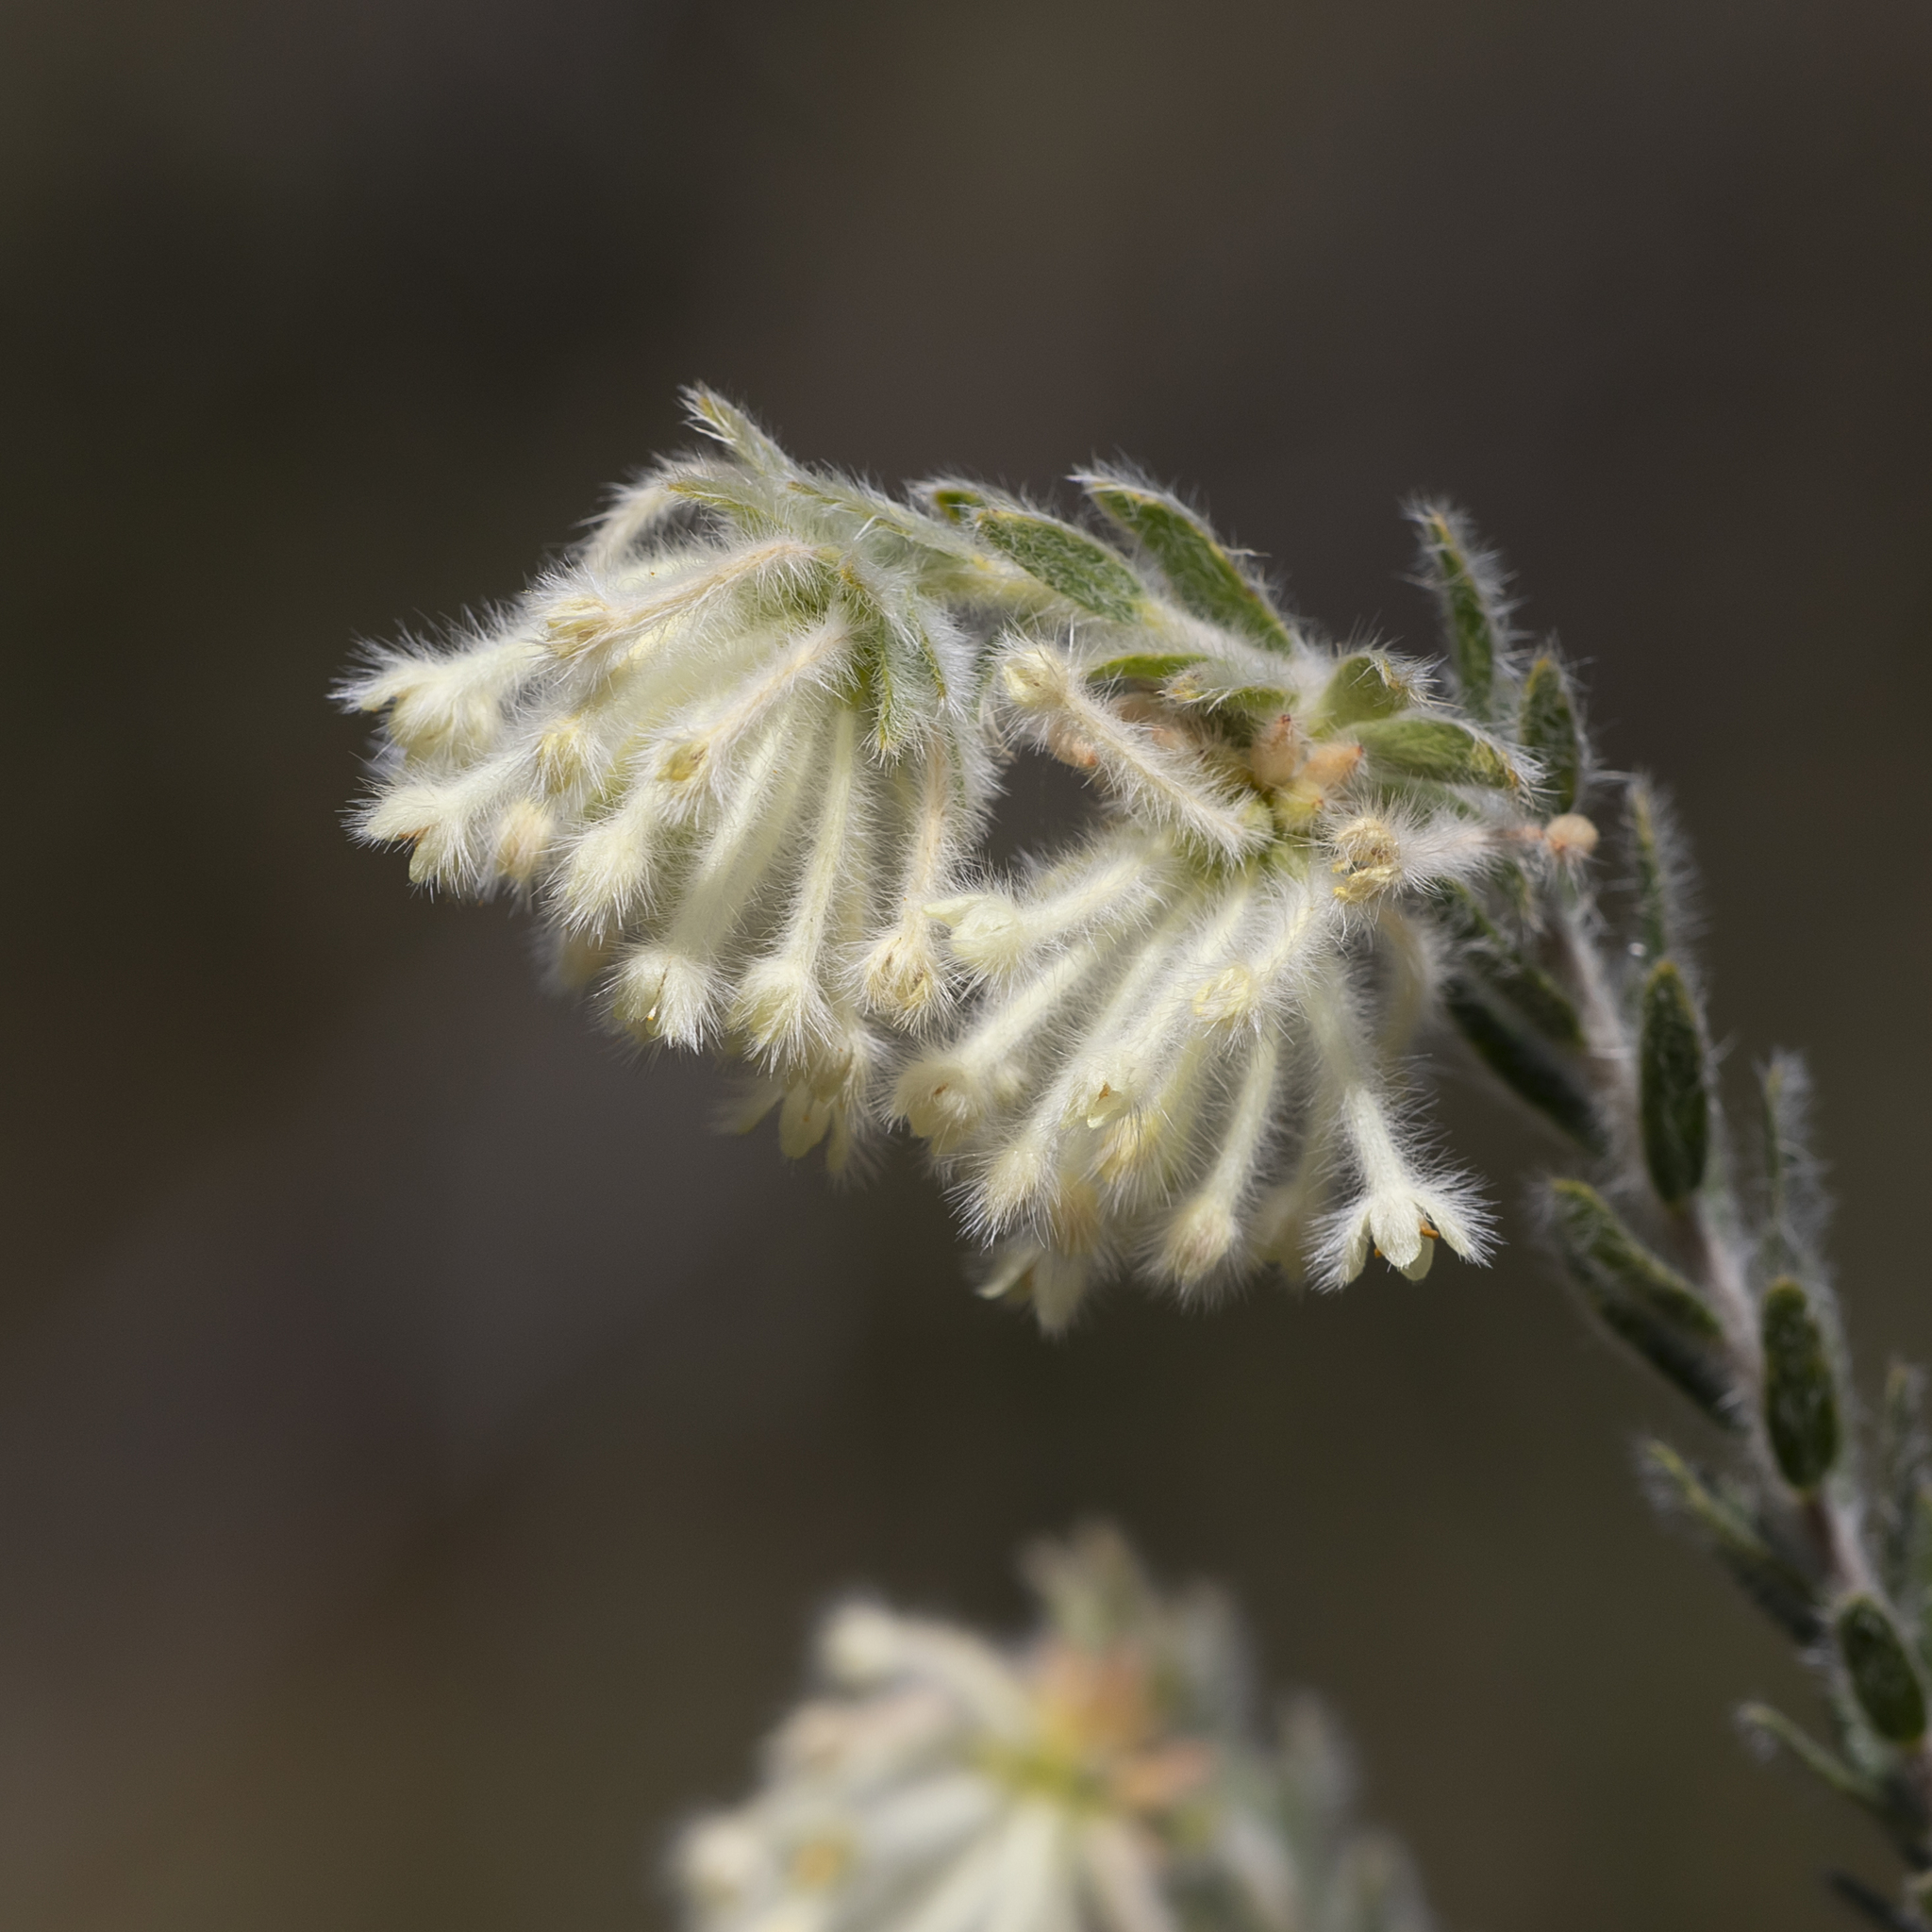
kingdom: Plantae
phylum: Tracheophyta
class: Magnoliopsida
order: Malvales
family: Thymelaeaceae
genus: Pimelea
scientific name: Pimelea octophylla
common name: Woolly riceflower
